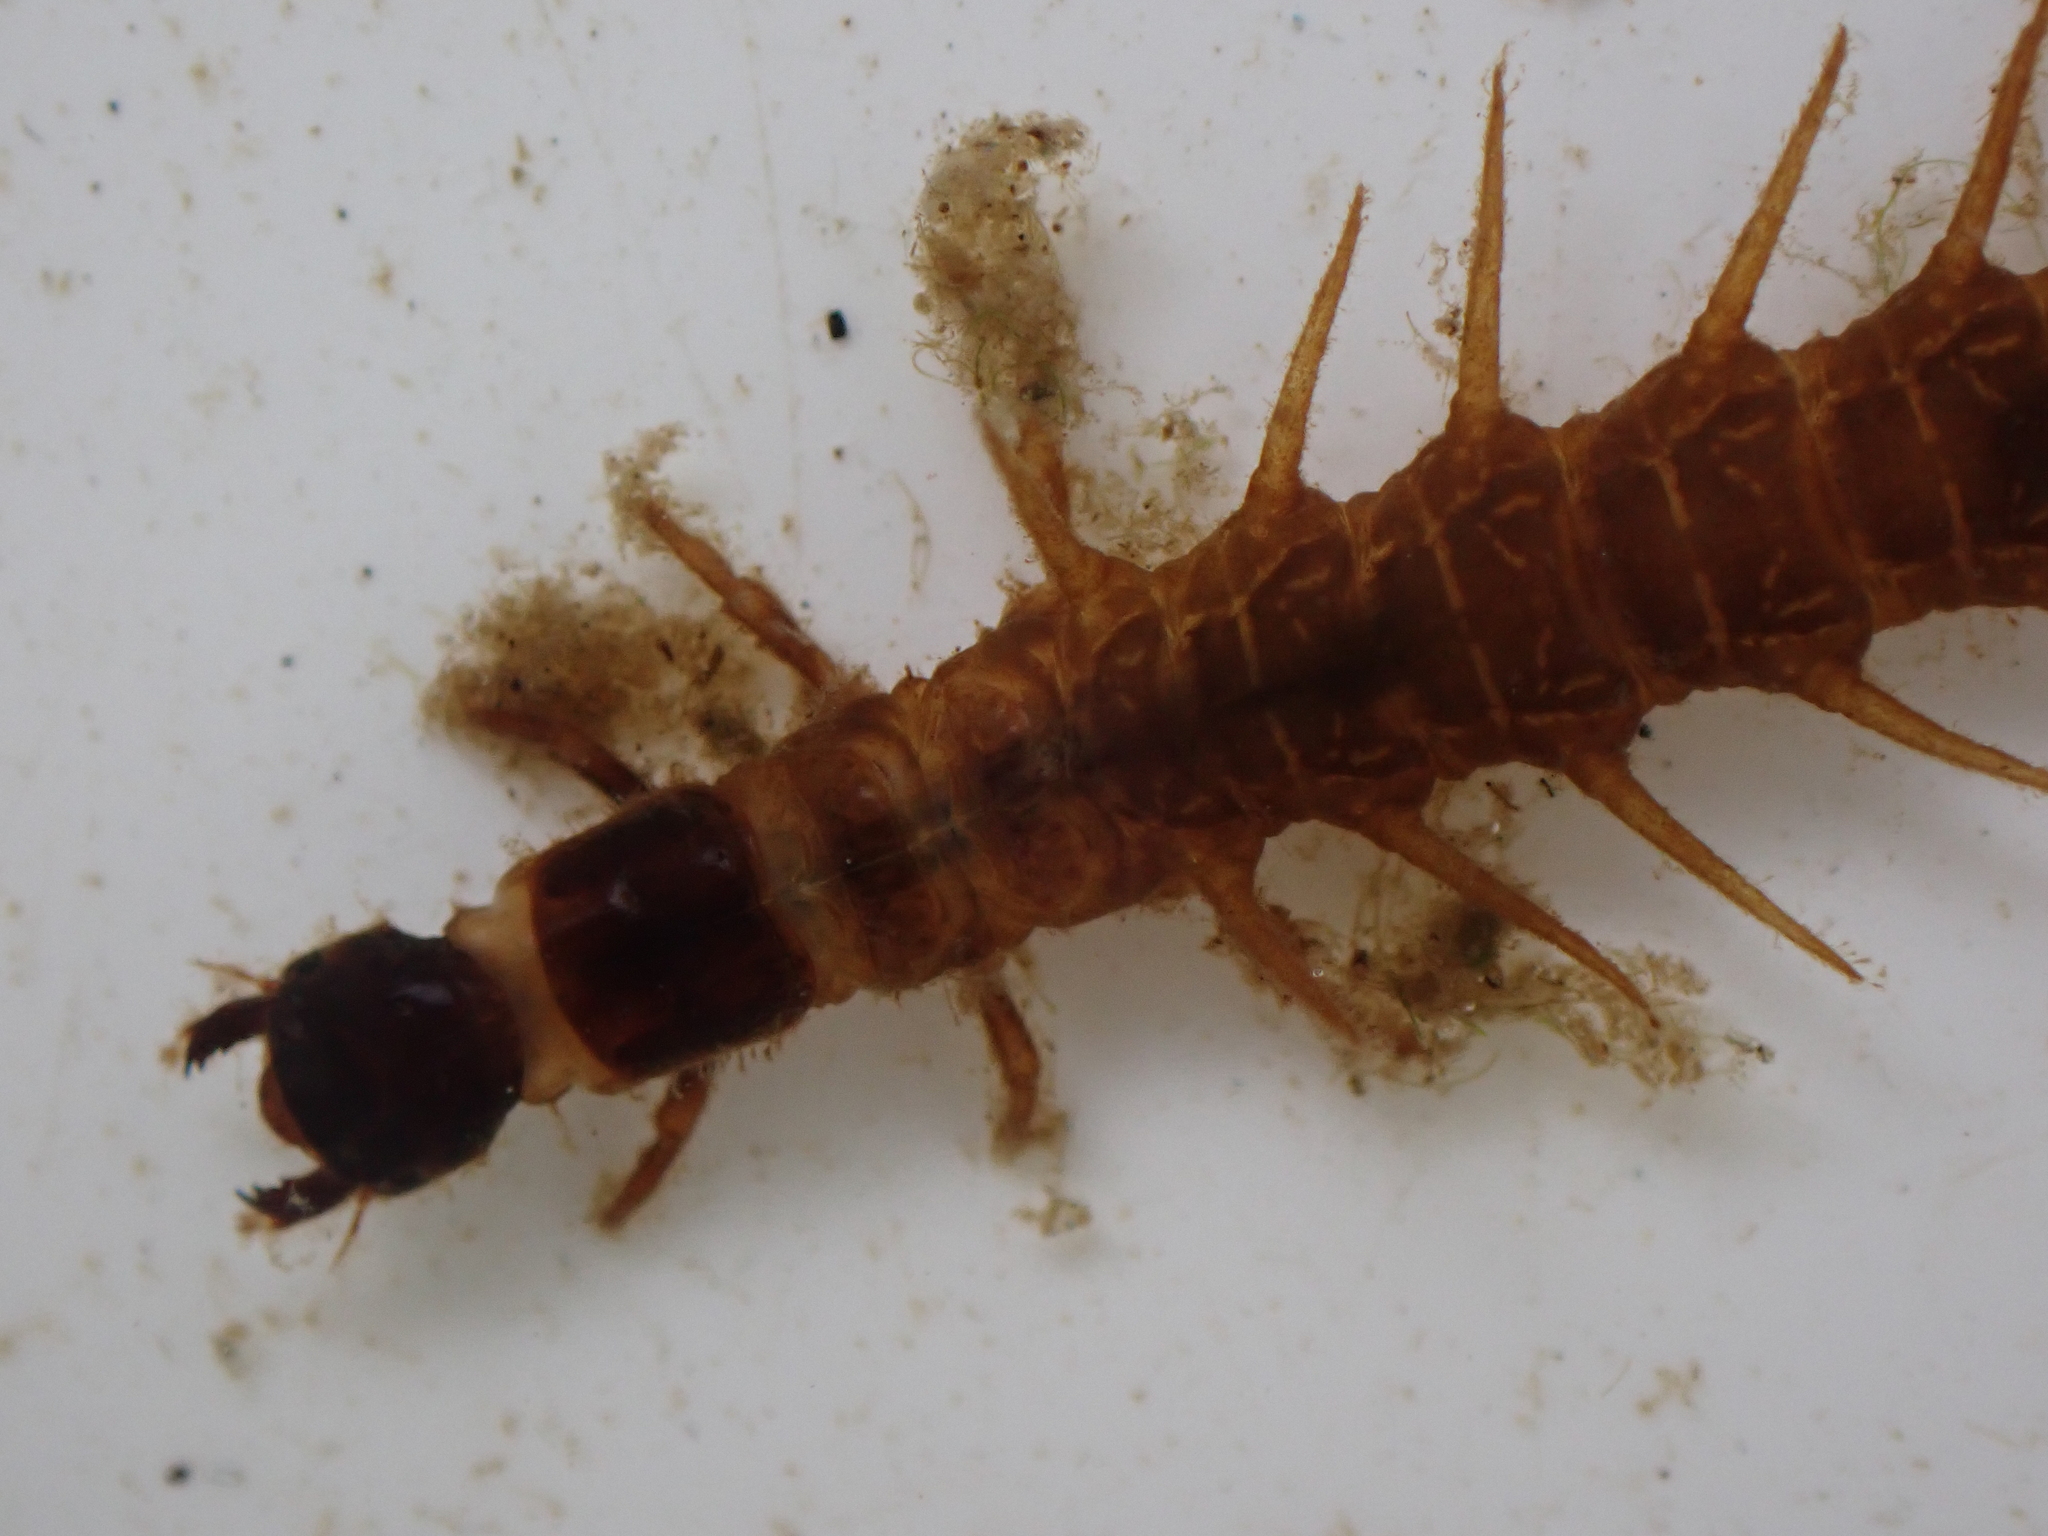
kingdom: Animalia
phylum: Arthropoda
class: Insecta
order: Megaloptera
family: Corydalidae
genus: Archichauliodes
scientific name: Archichauliodes diversus
